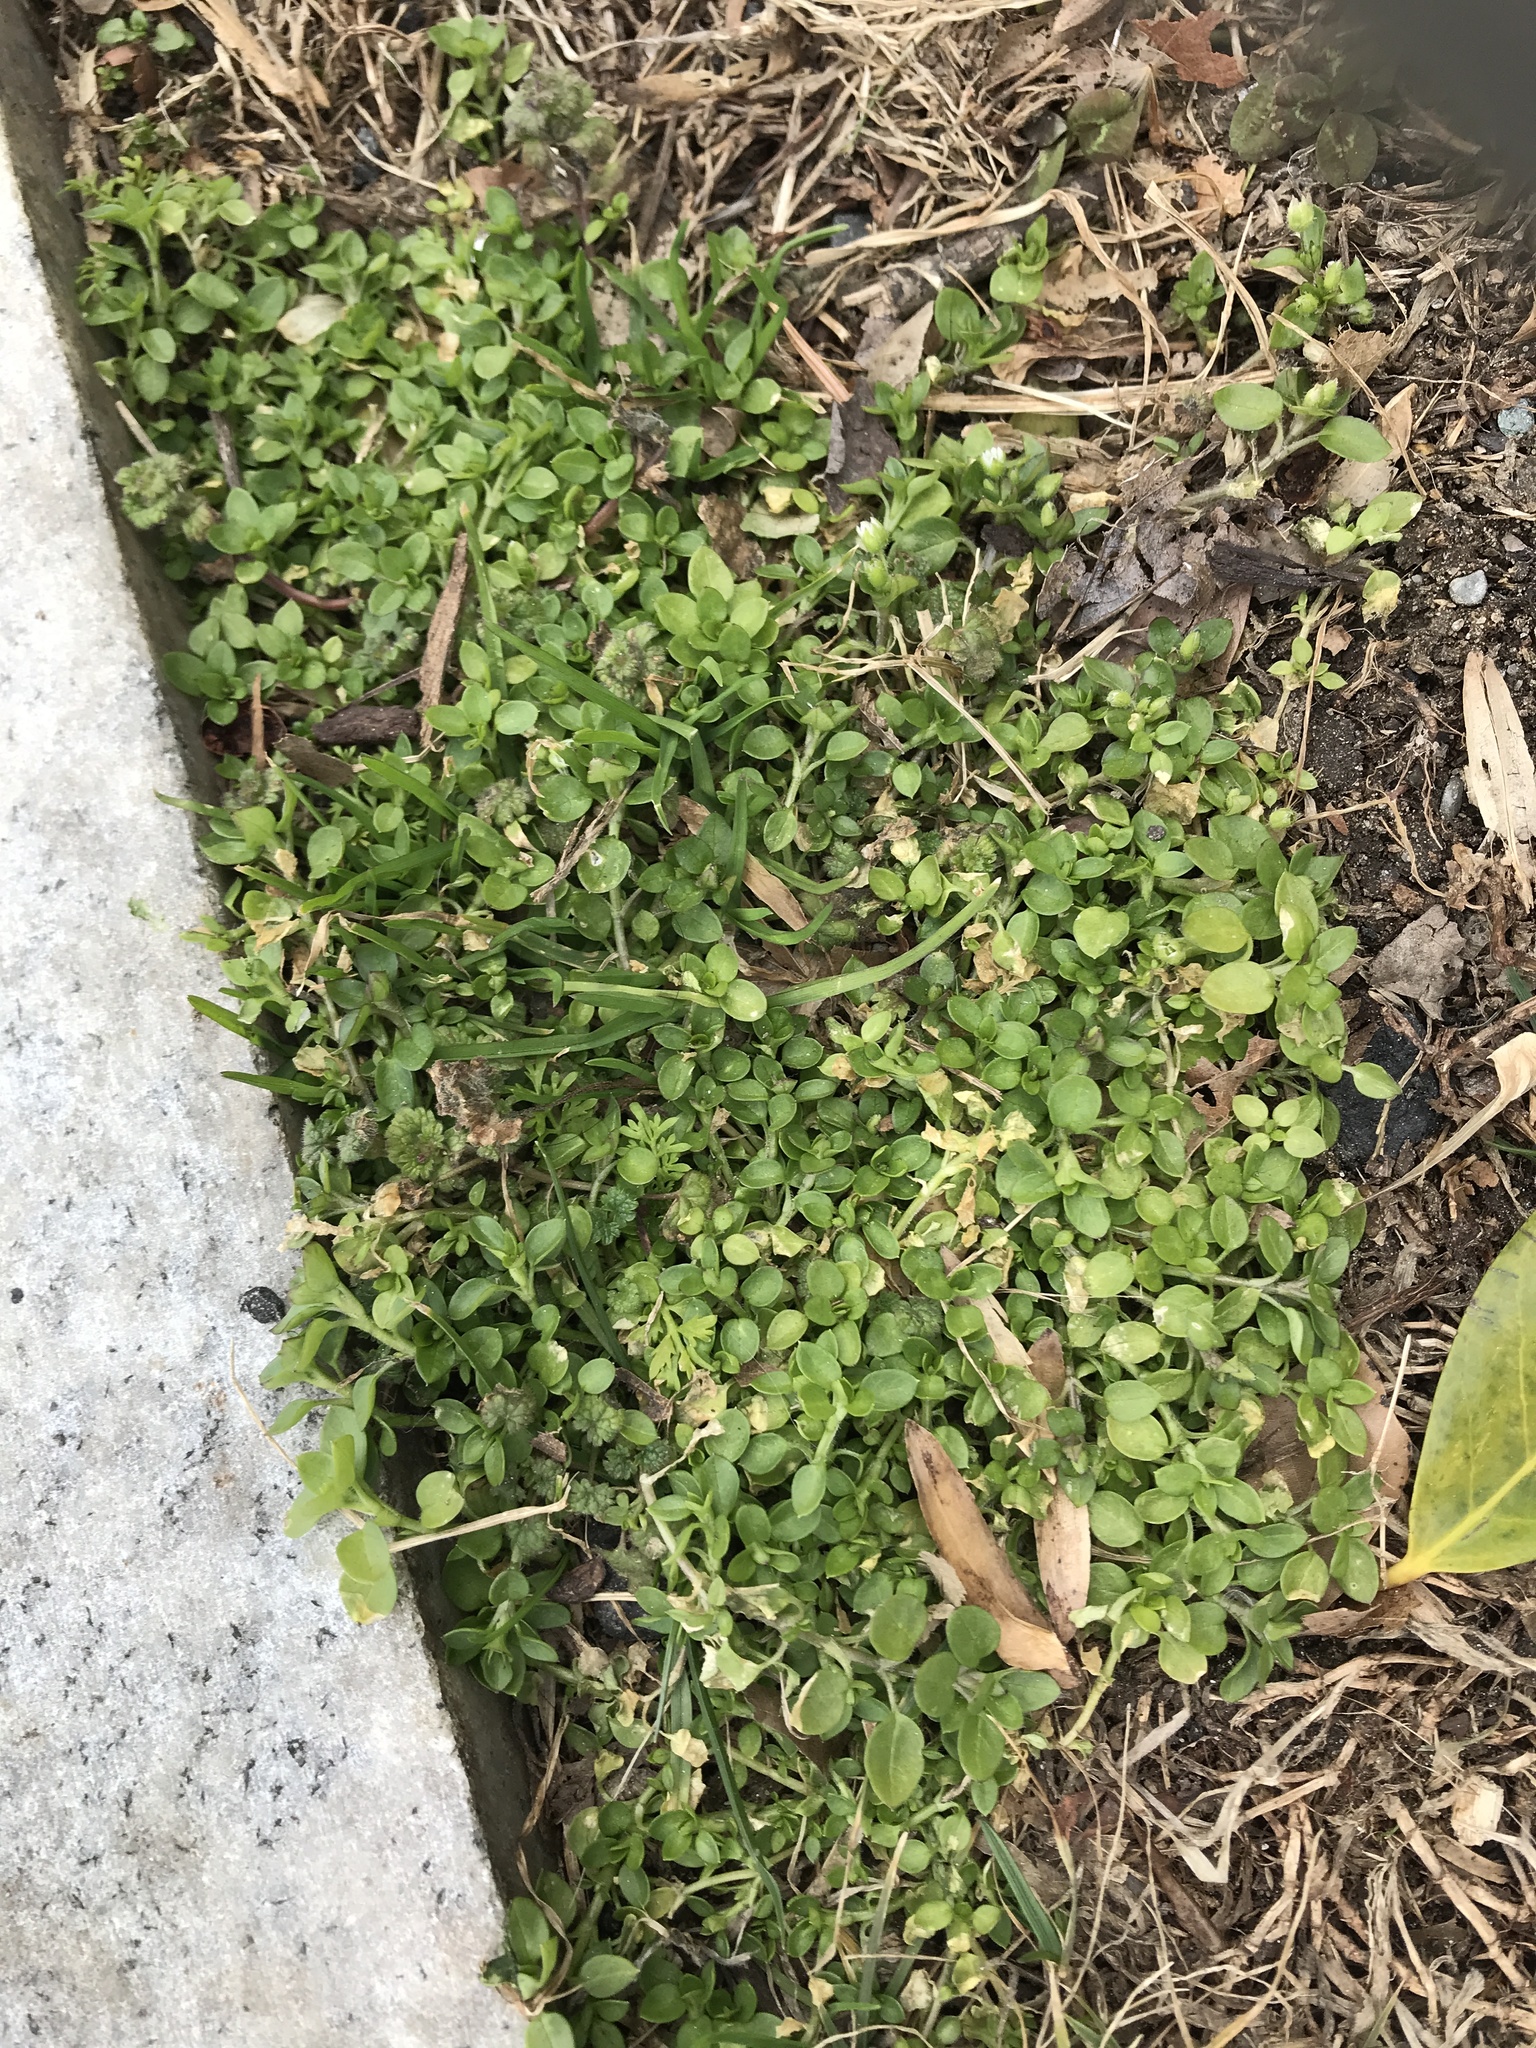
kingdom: Plantae
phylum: Tracheophyta
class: Magnoliopsida
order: Caryophyllales
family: Caryophyllaceae
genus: Stellaria
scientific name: Stellaria media
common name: Common chickweed
